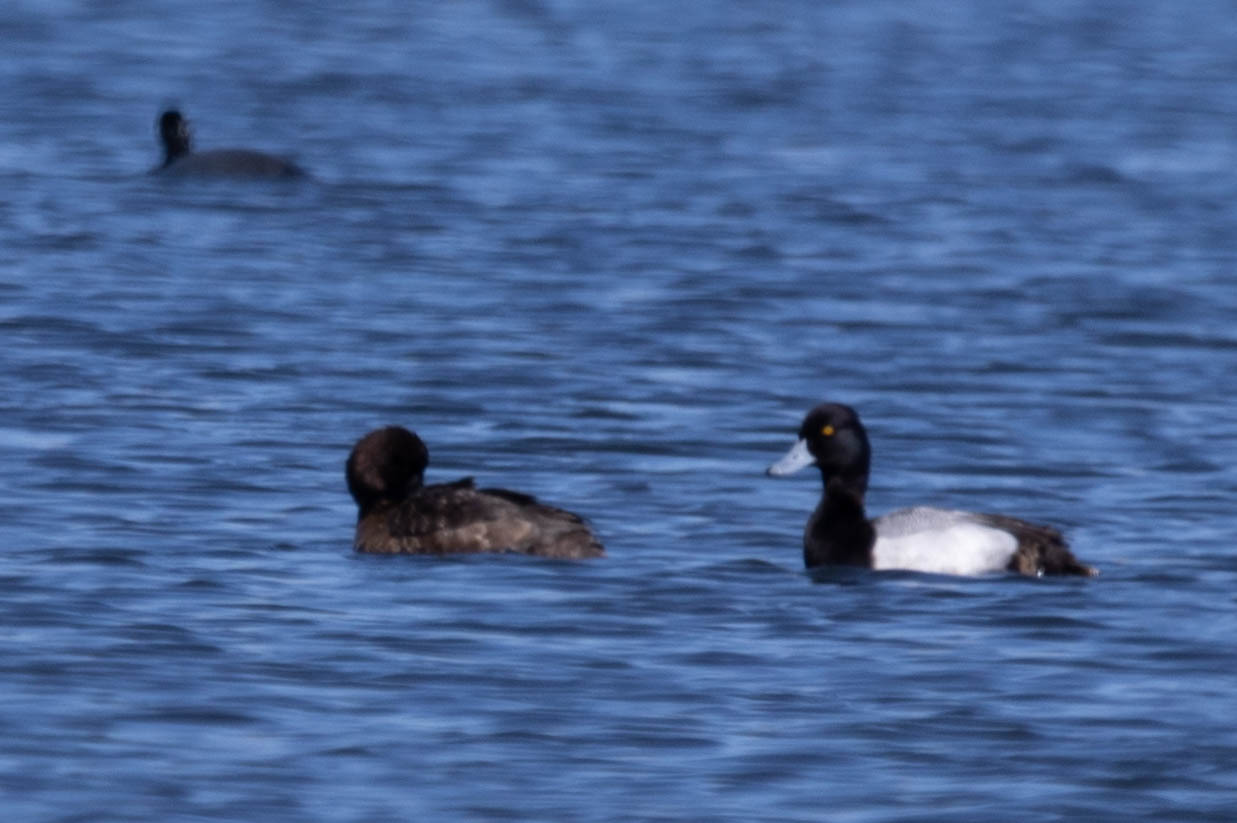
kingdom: Animalia
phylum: Chordata
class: Aves
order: Anseriformes
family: Anatidae
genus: Aythya
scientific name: Aythya affinis
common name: Lesser scaup
